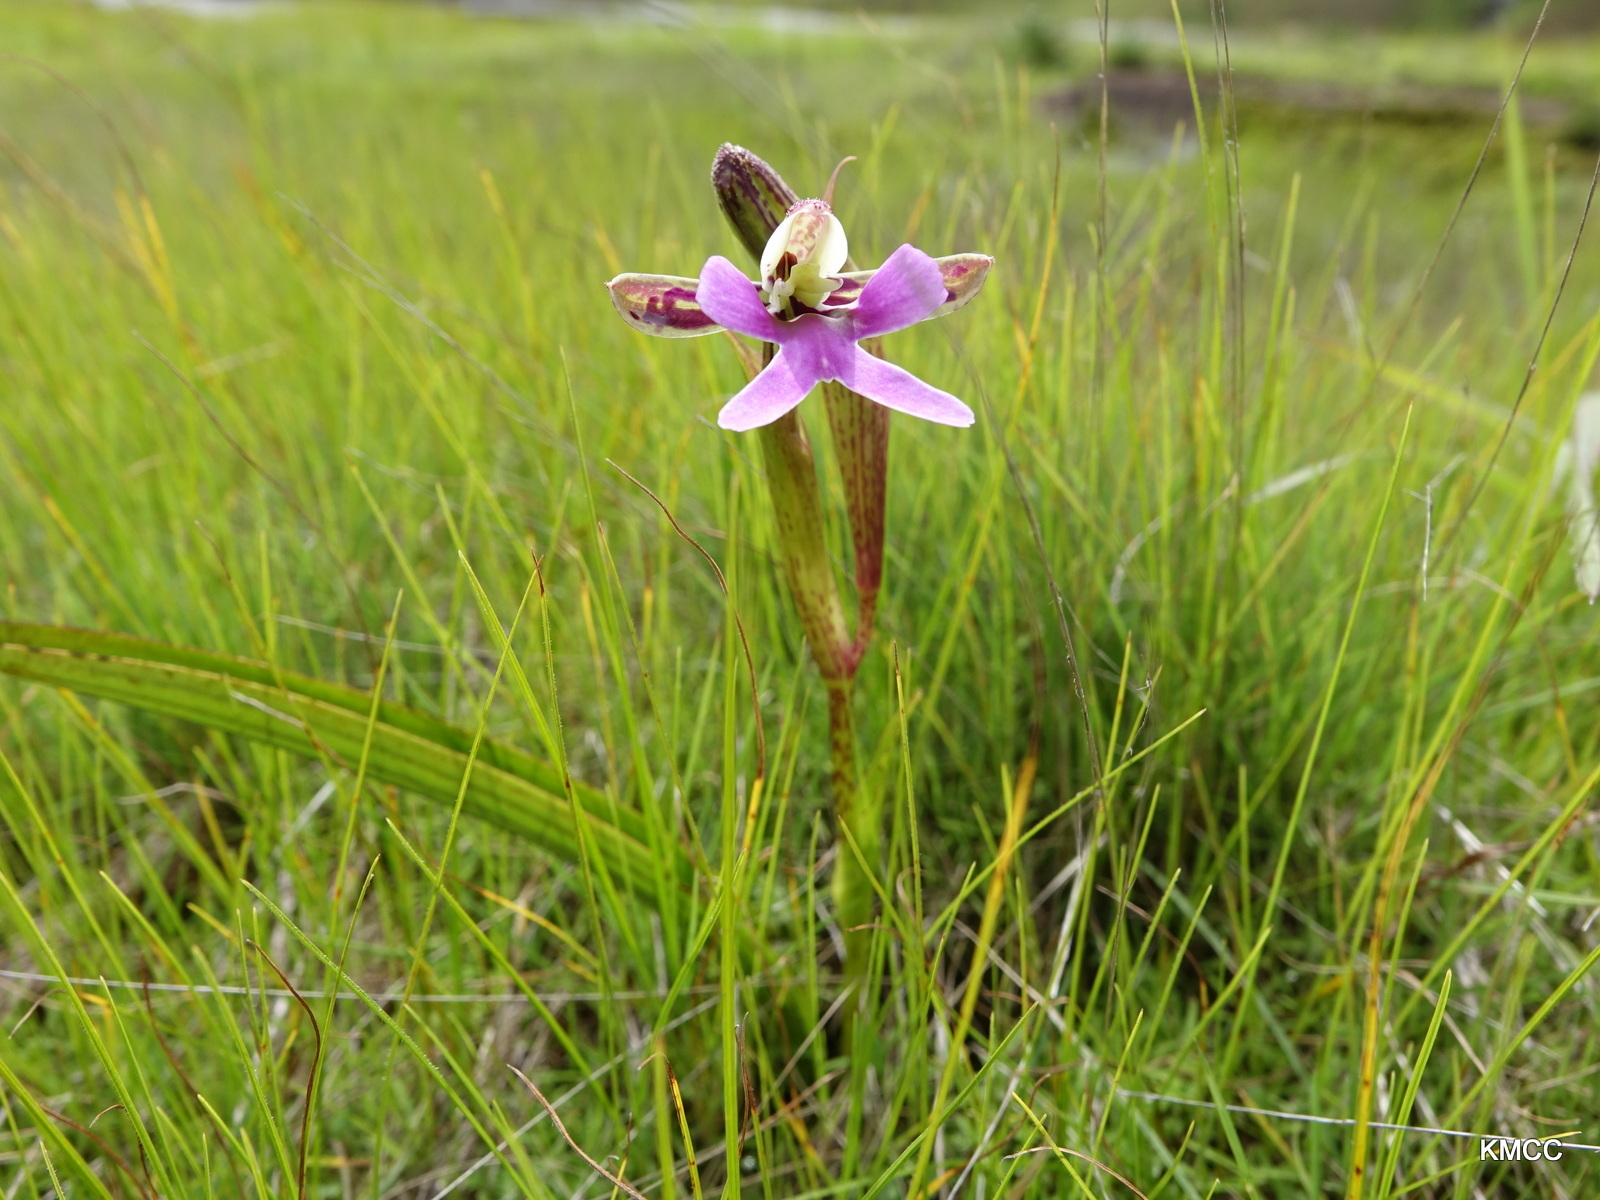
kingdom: Plantae
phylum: Tracheophyta
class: Liliopsida
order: Asparagales
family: Orchidaceae
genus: Cynorkis
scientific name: Cynorkis uniflora
